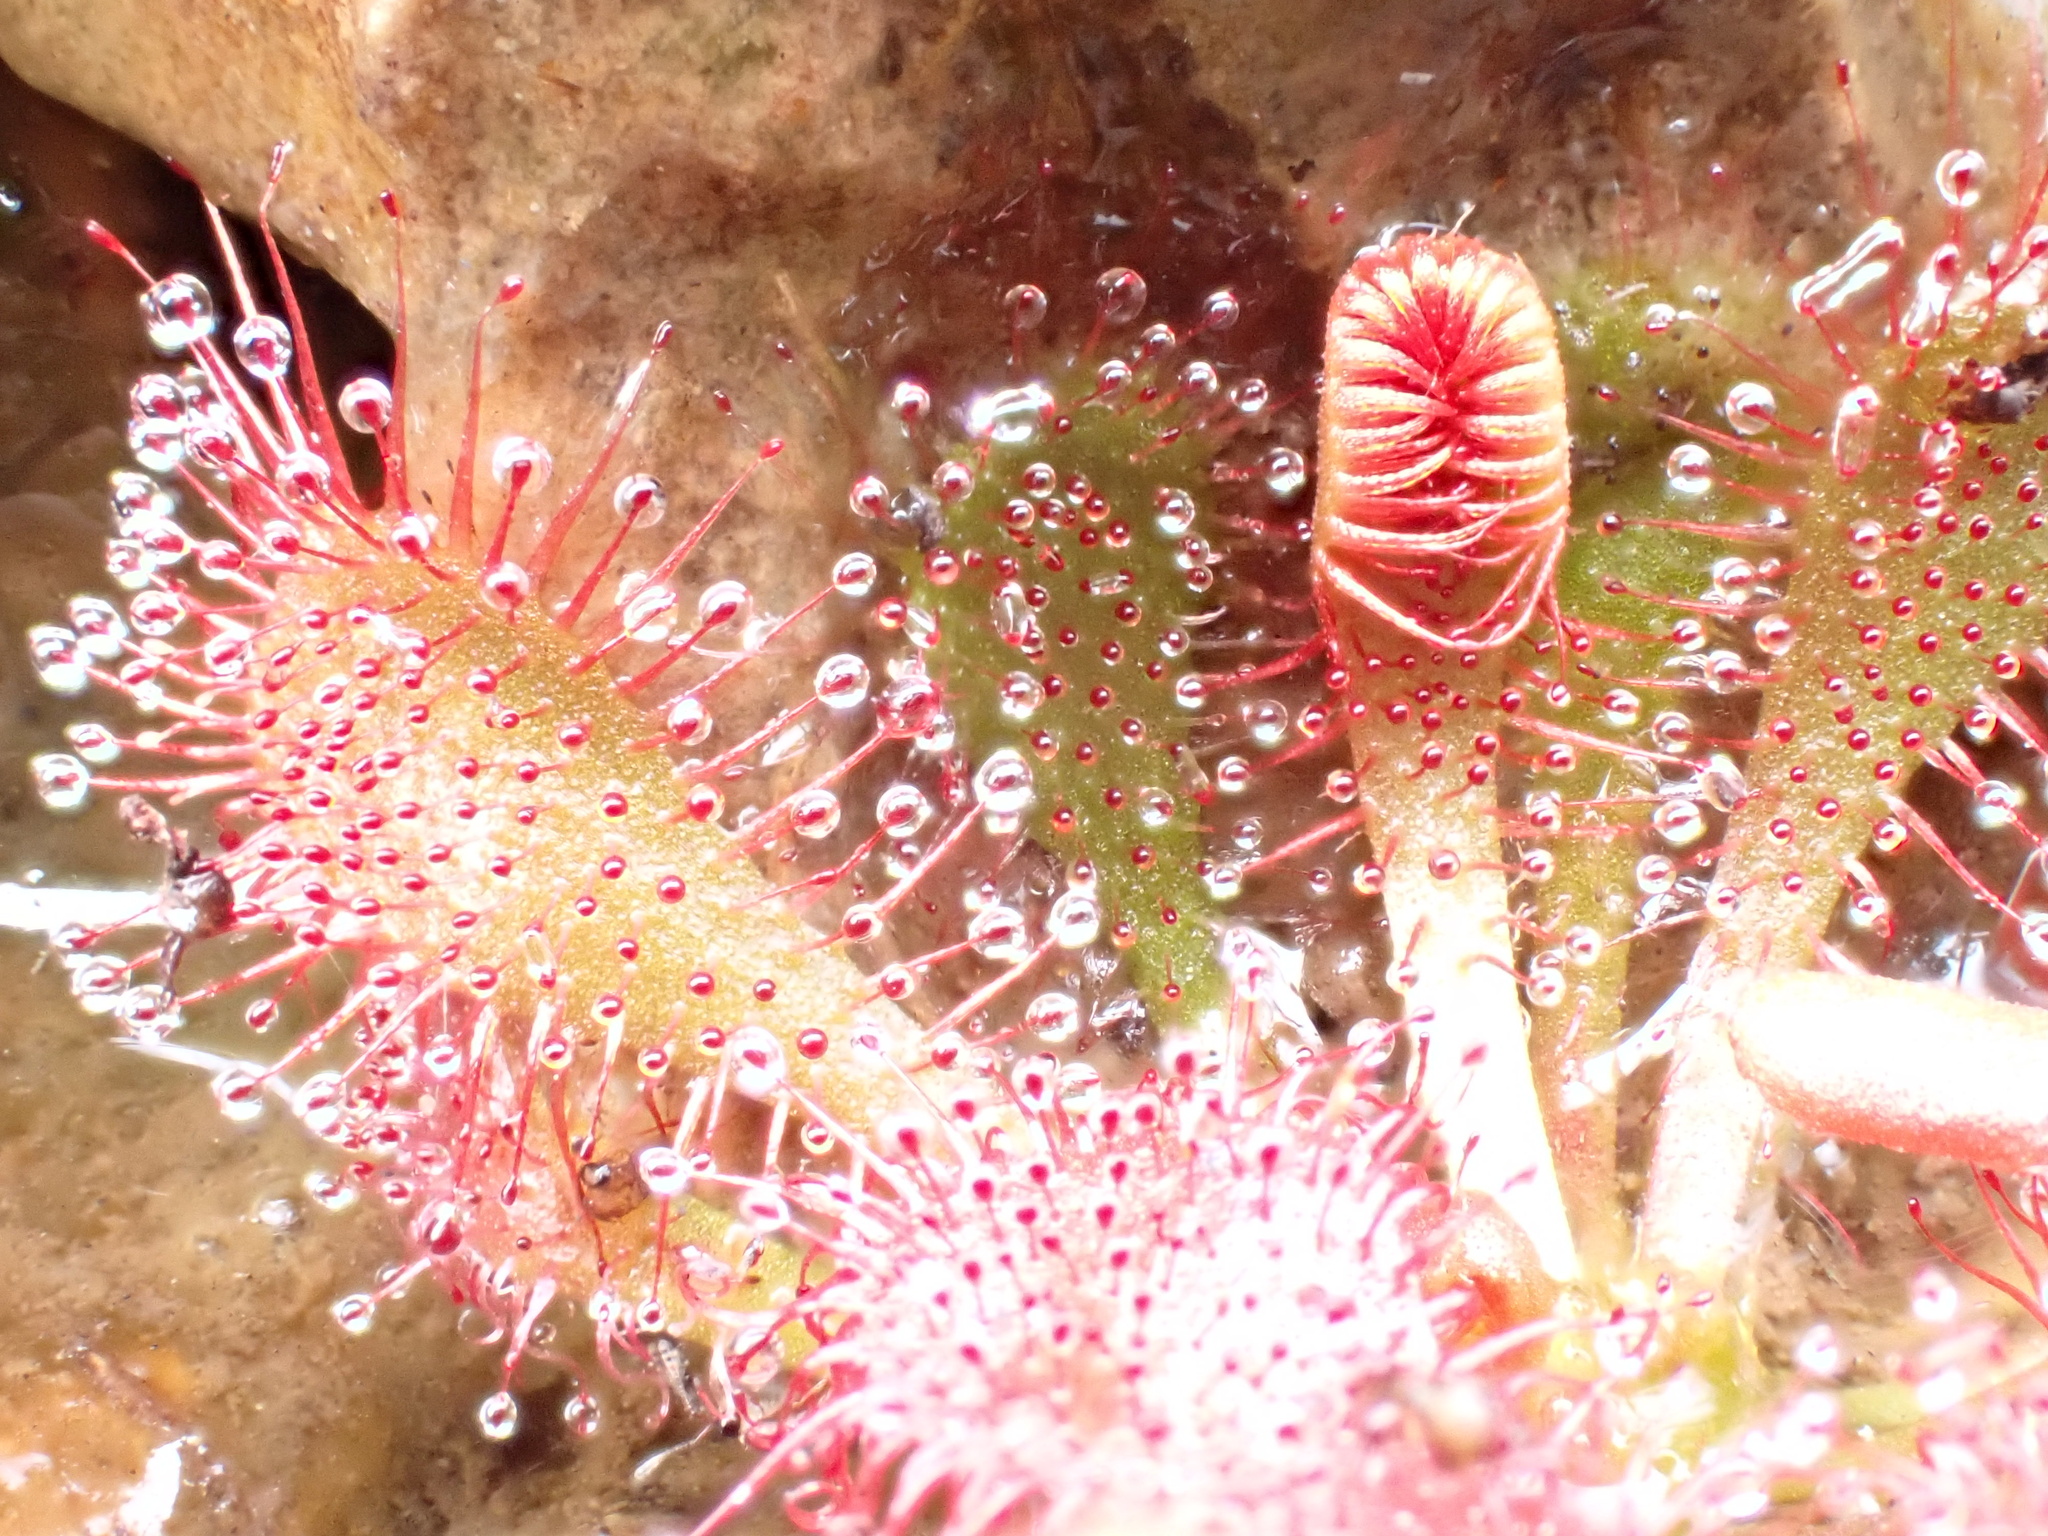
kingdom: Plantae
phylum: Tracheophyta
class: Magnoliopsida
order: Caryophyllales
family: Droseraceae
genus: Drosera
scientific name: Drosera spatulata
